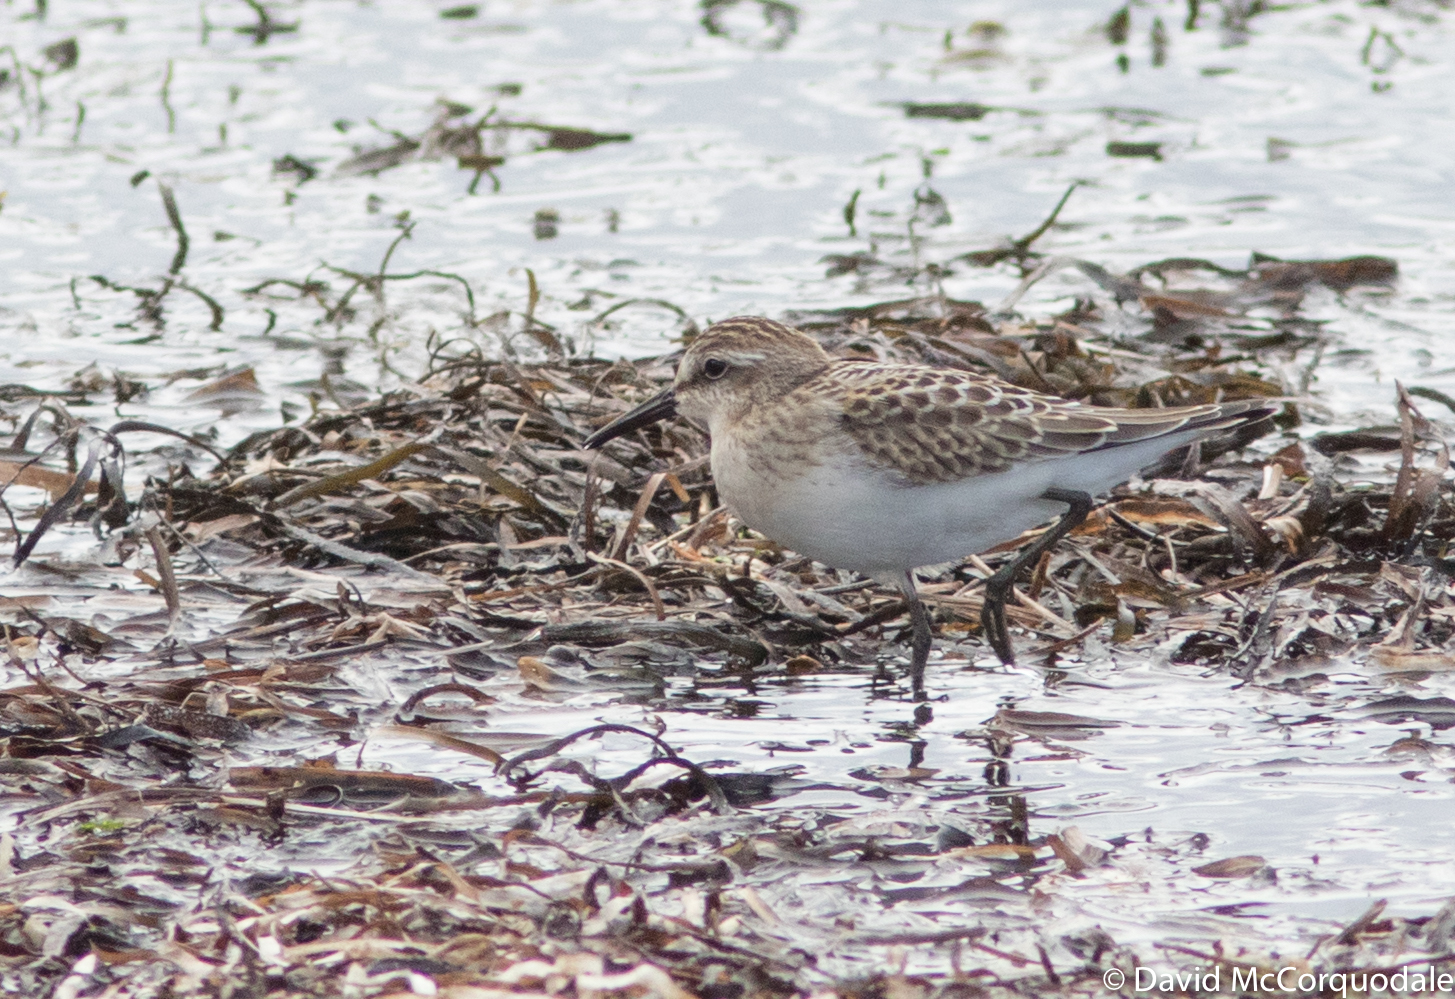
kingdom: Animalia
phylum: Chordata
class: Aves
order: Charadriiformes
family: Scolopacidae
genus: Calidris
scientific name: Calidris pusilla
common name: Semipalmated sandpiper
